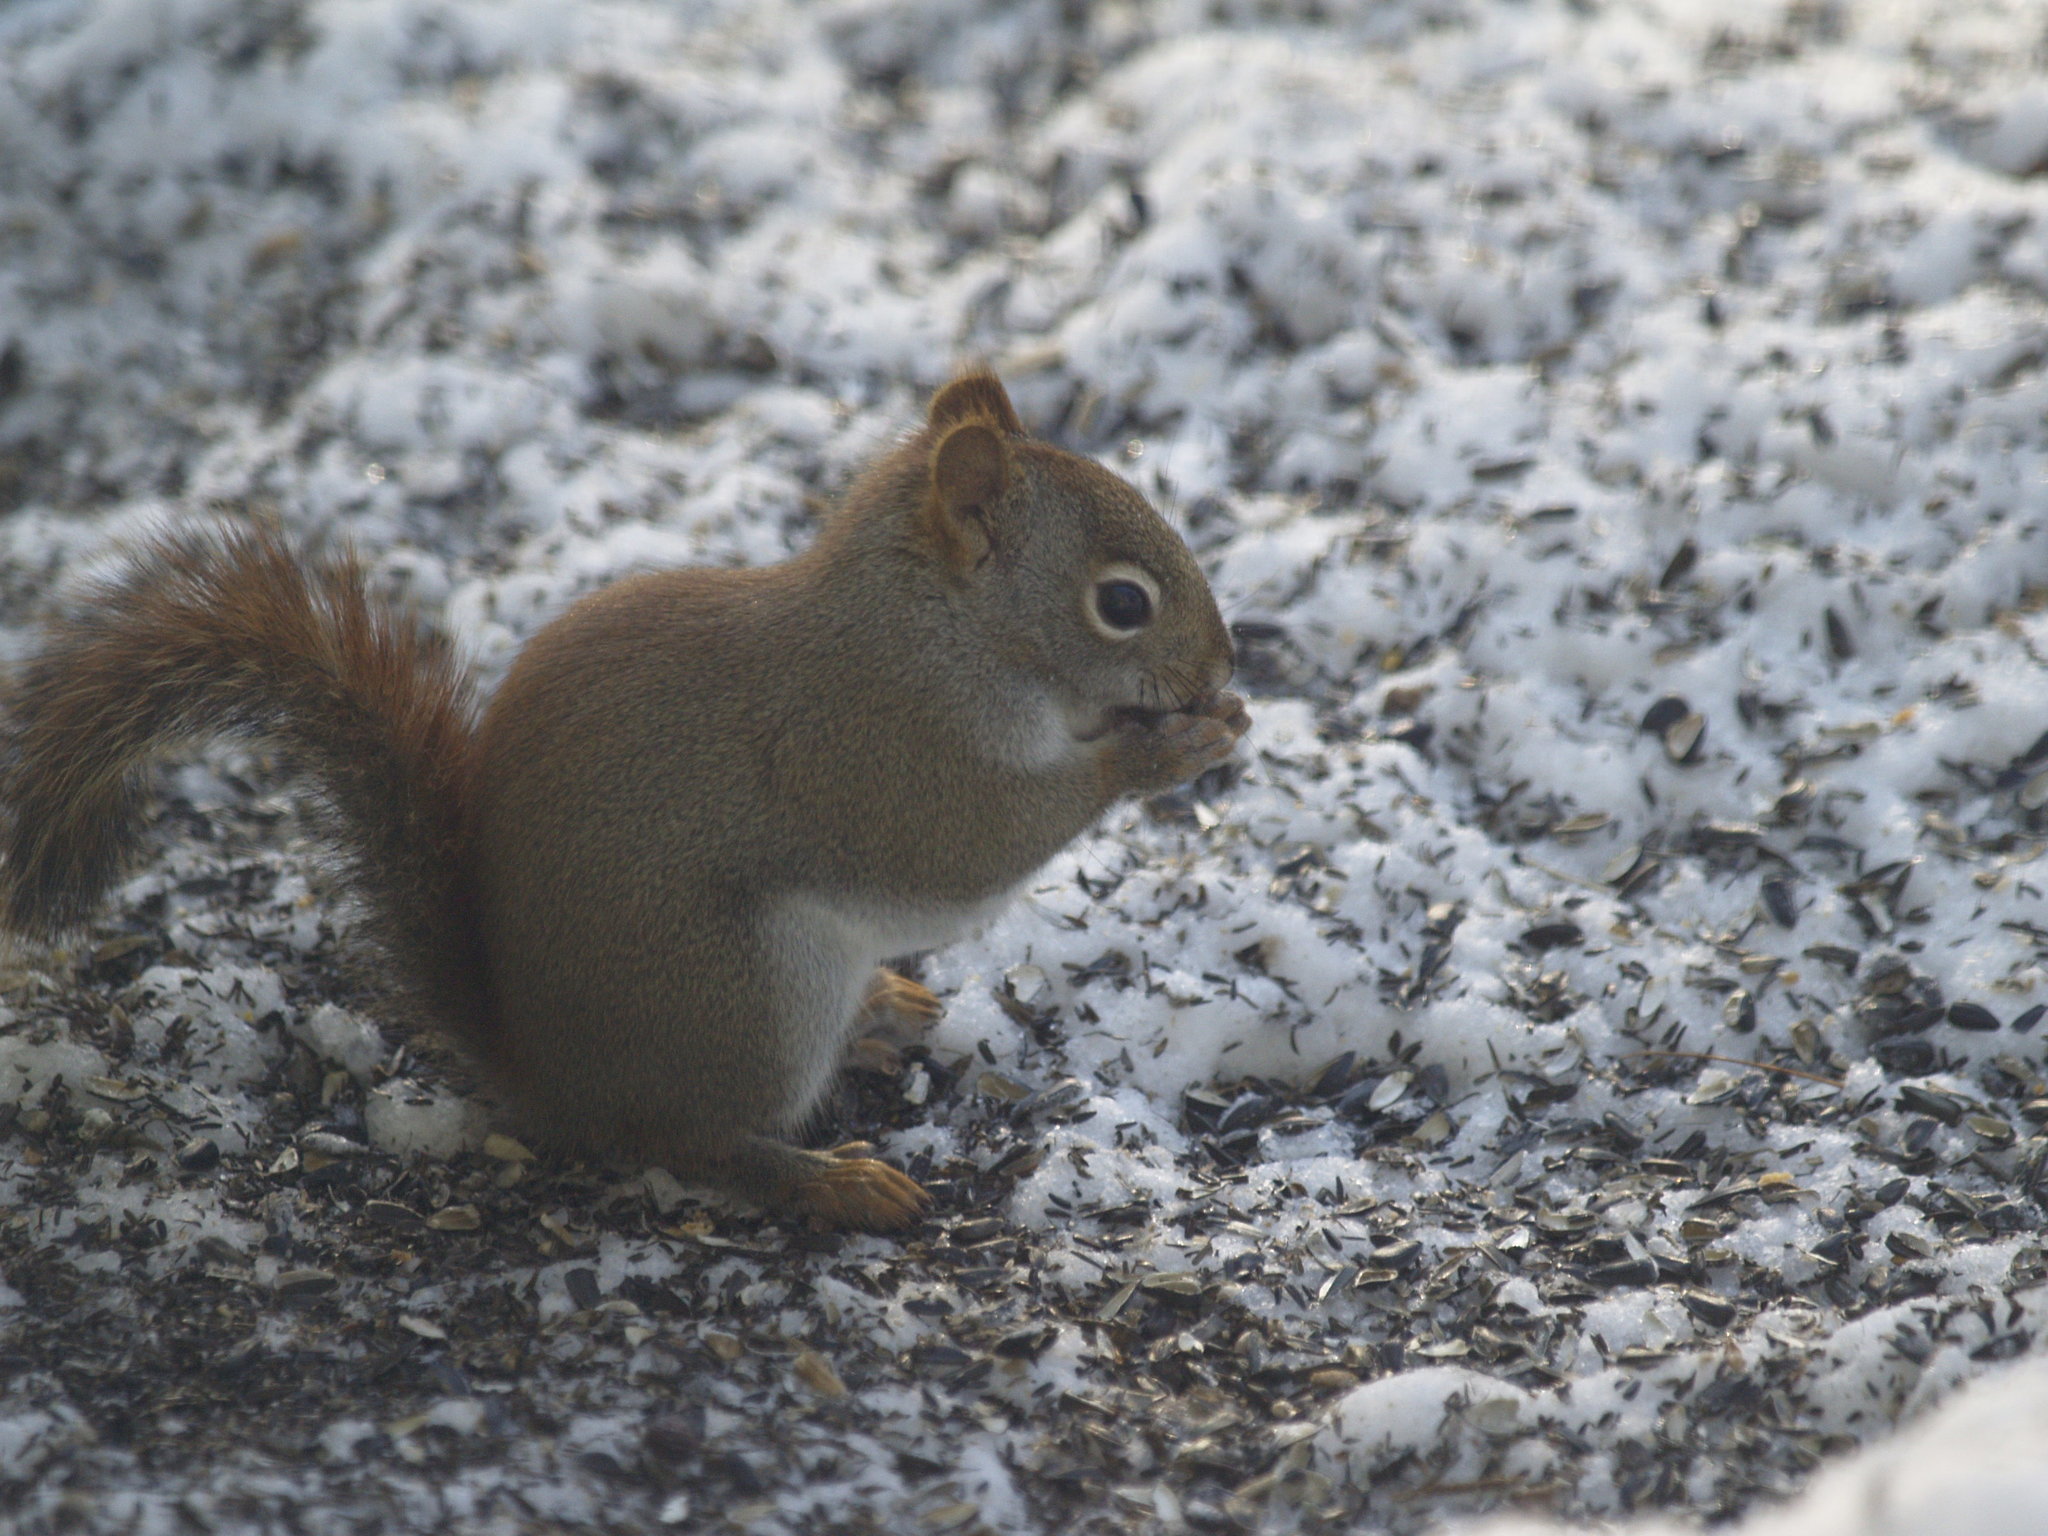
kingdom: Animalia
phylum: Chordata
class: Mammalia
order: Rodentia
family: Sciuridae
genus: Tamiasciurus
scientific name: Tamiasciurus hudsonicus
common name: Red squirrel
